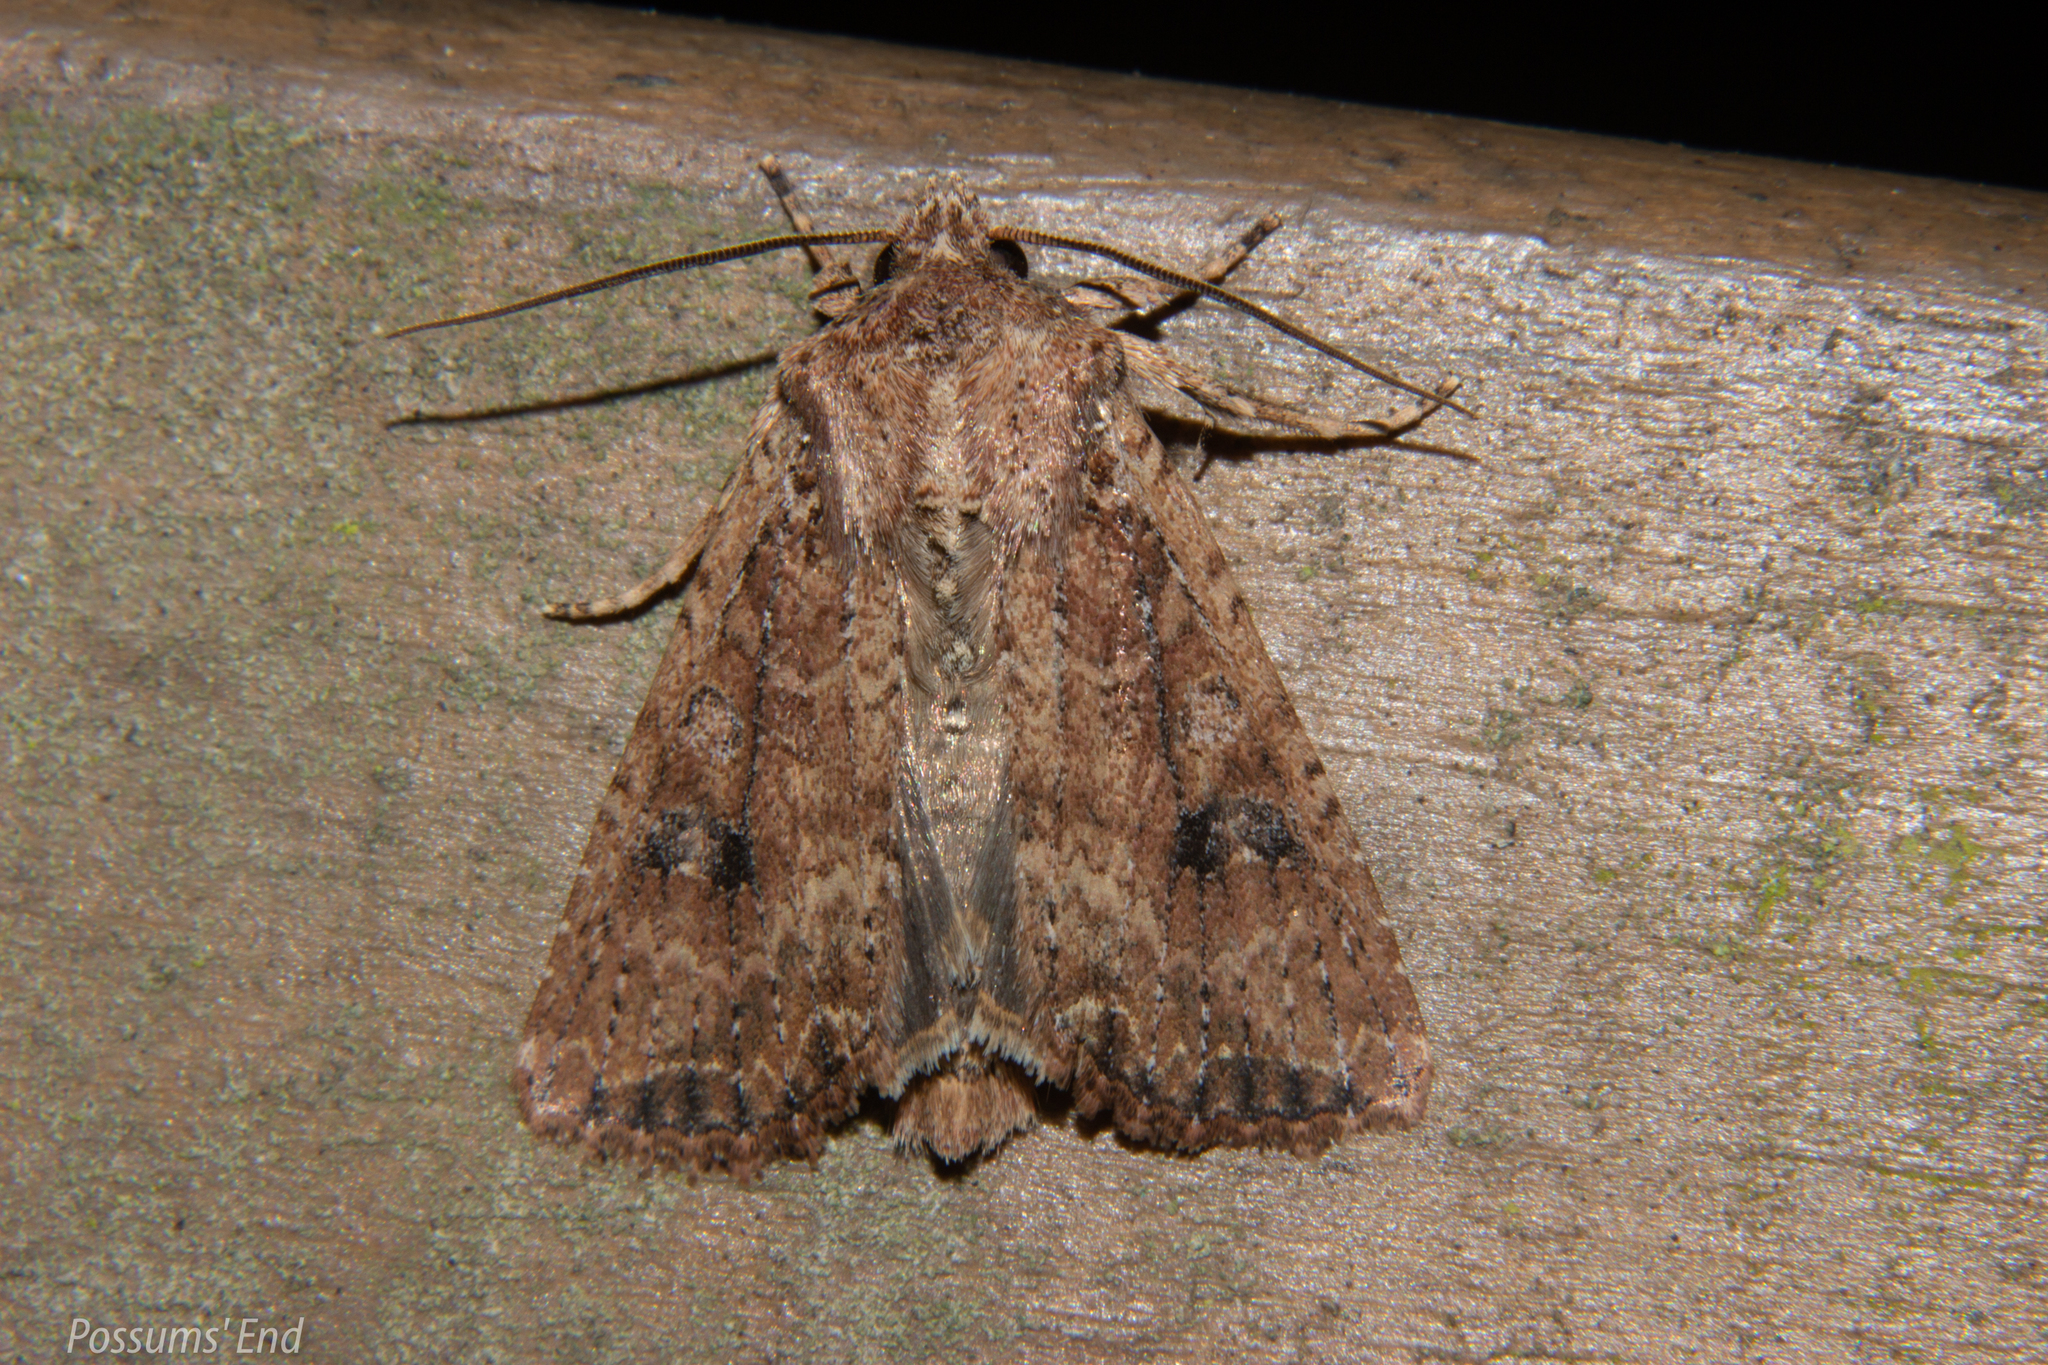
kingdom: Animalia
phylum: Arthropoda
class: Insecta
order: Lepidoptera
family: Noctuidae
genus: Ichneutica
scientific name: Ichneutica morosa
